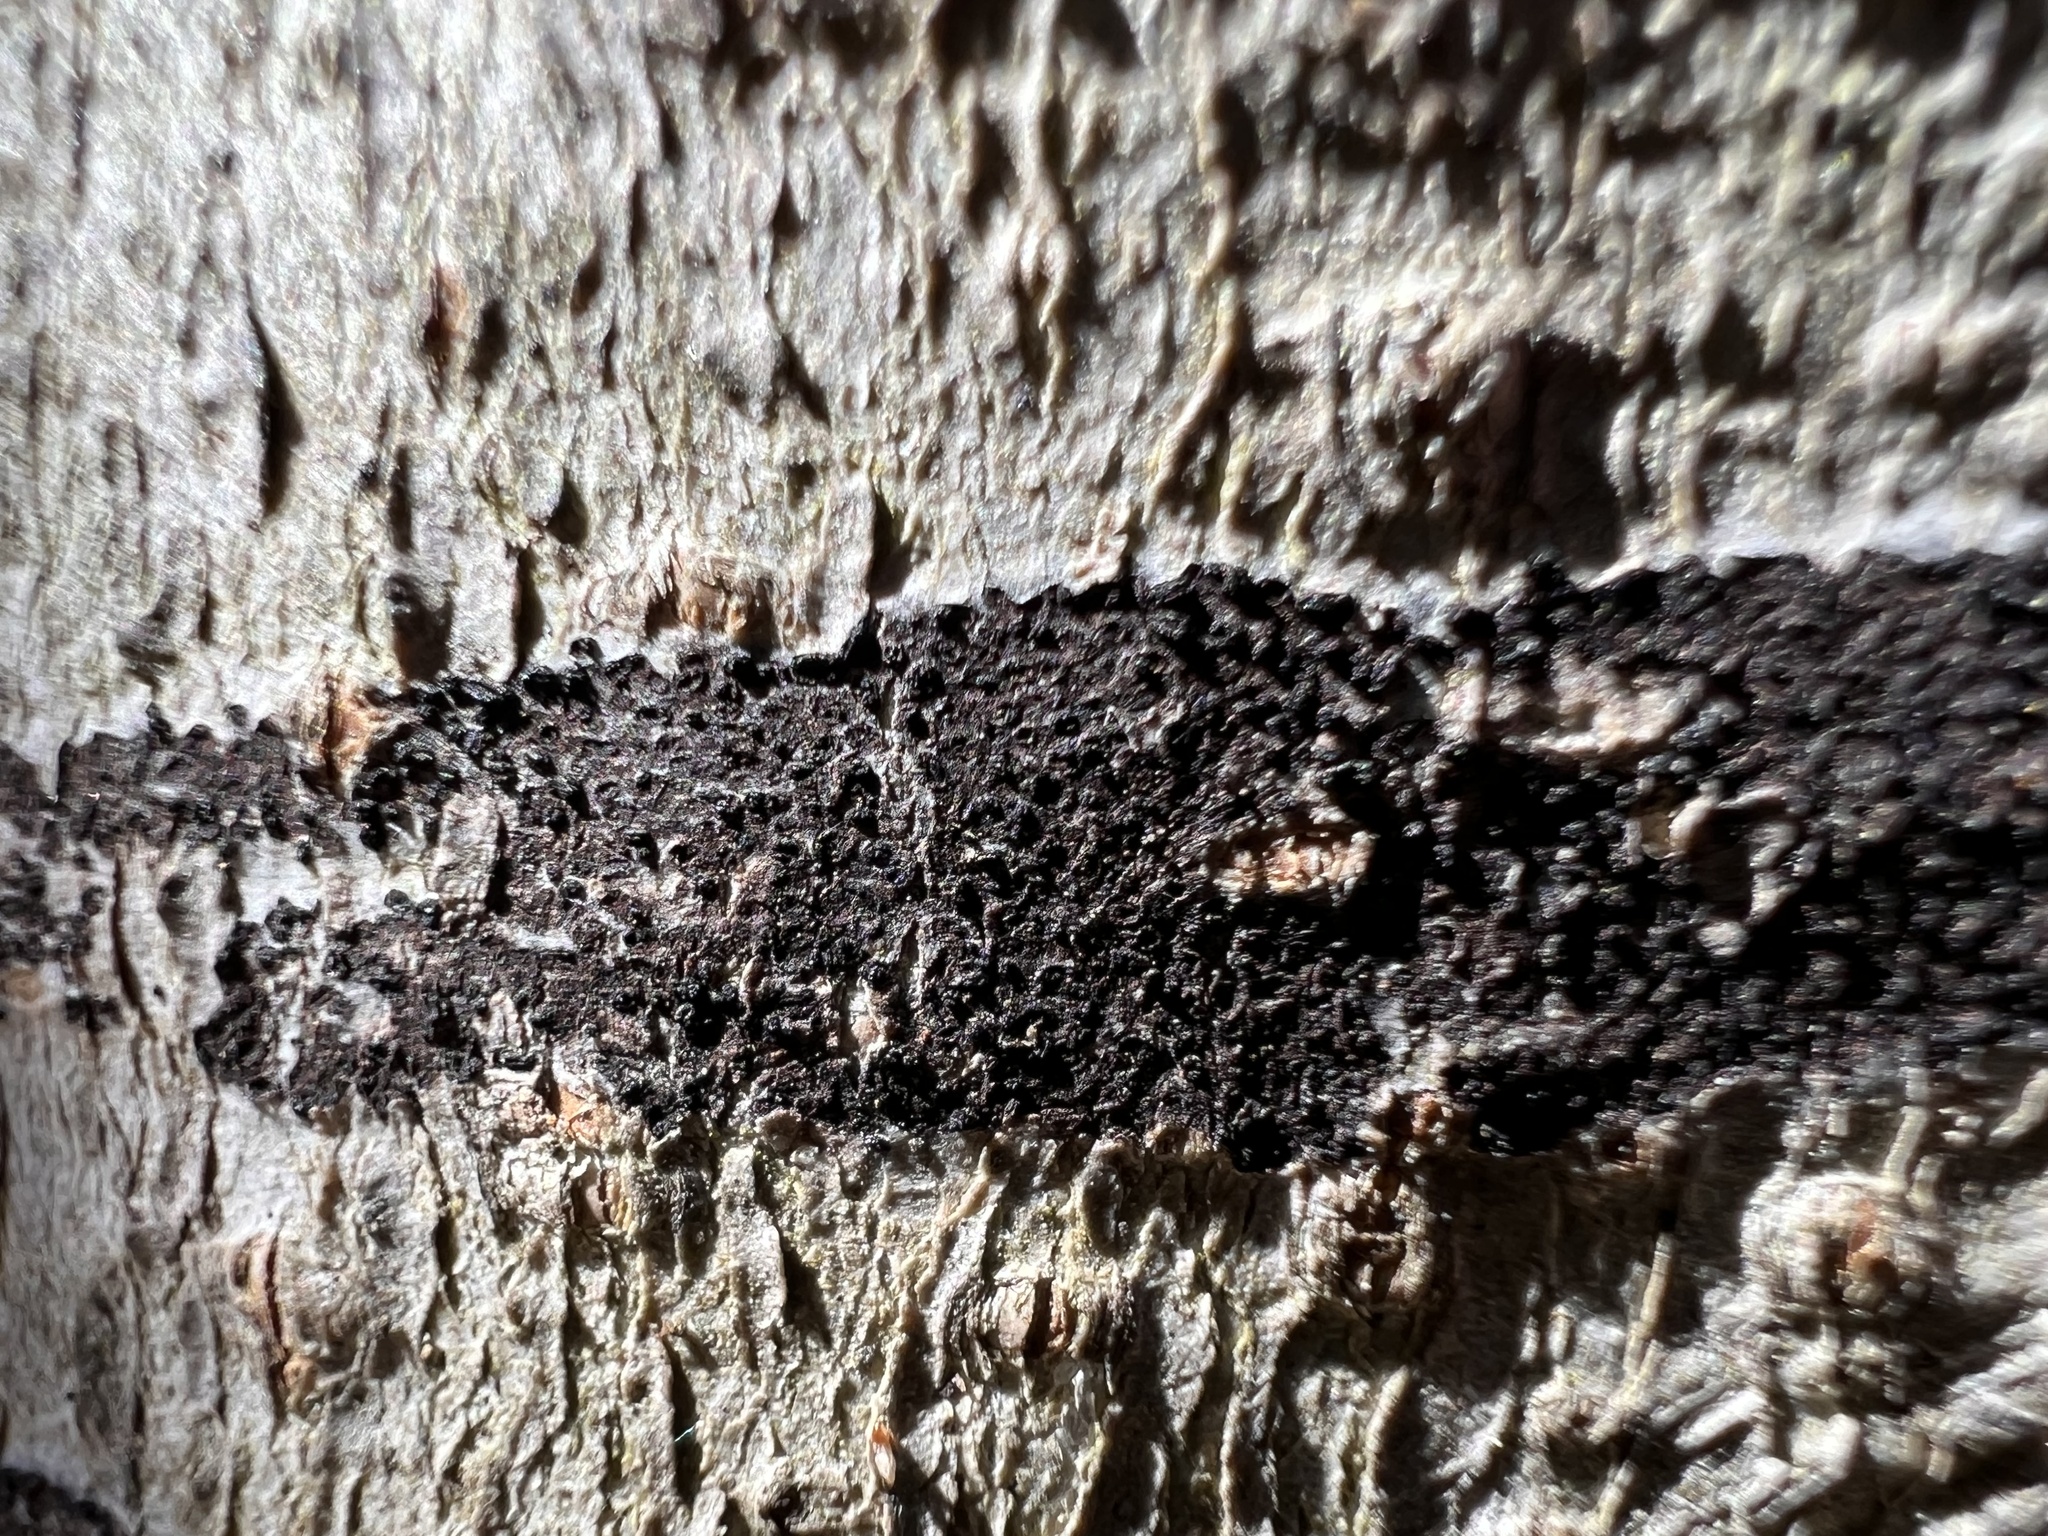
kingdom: Fungi
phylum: Ascomycota
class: Leotiomycetes
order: Rhytismatales
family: Ascodichaenaceae
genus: Ascodichaena
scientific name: Ascodichaena rugosa
